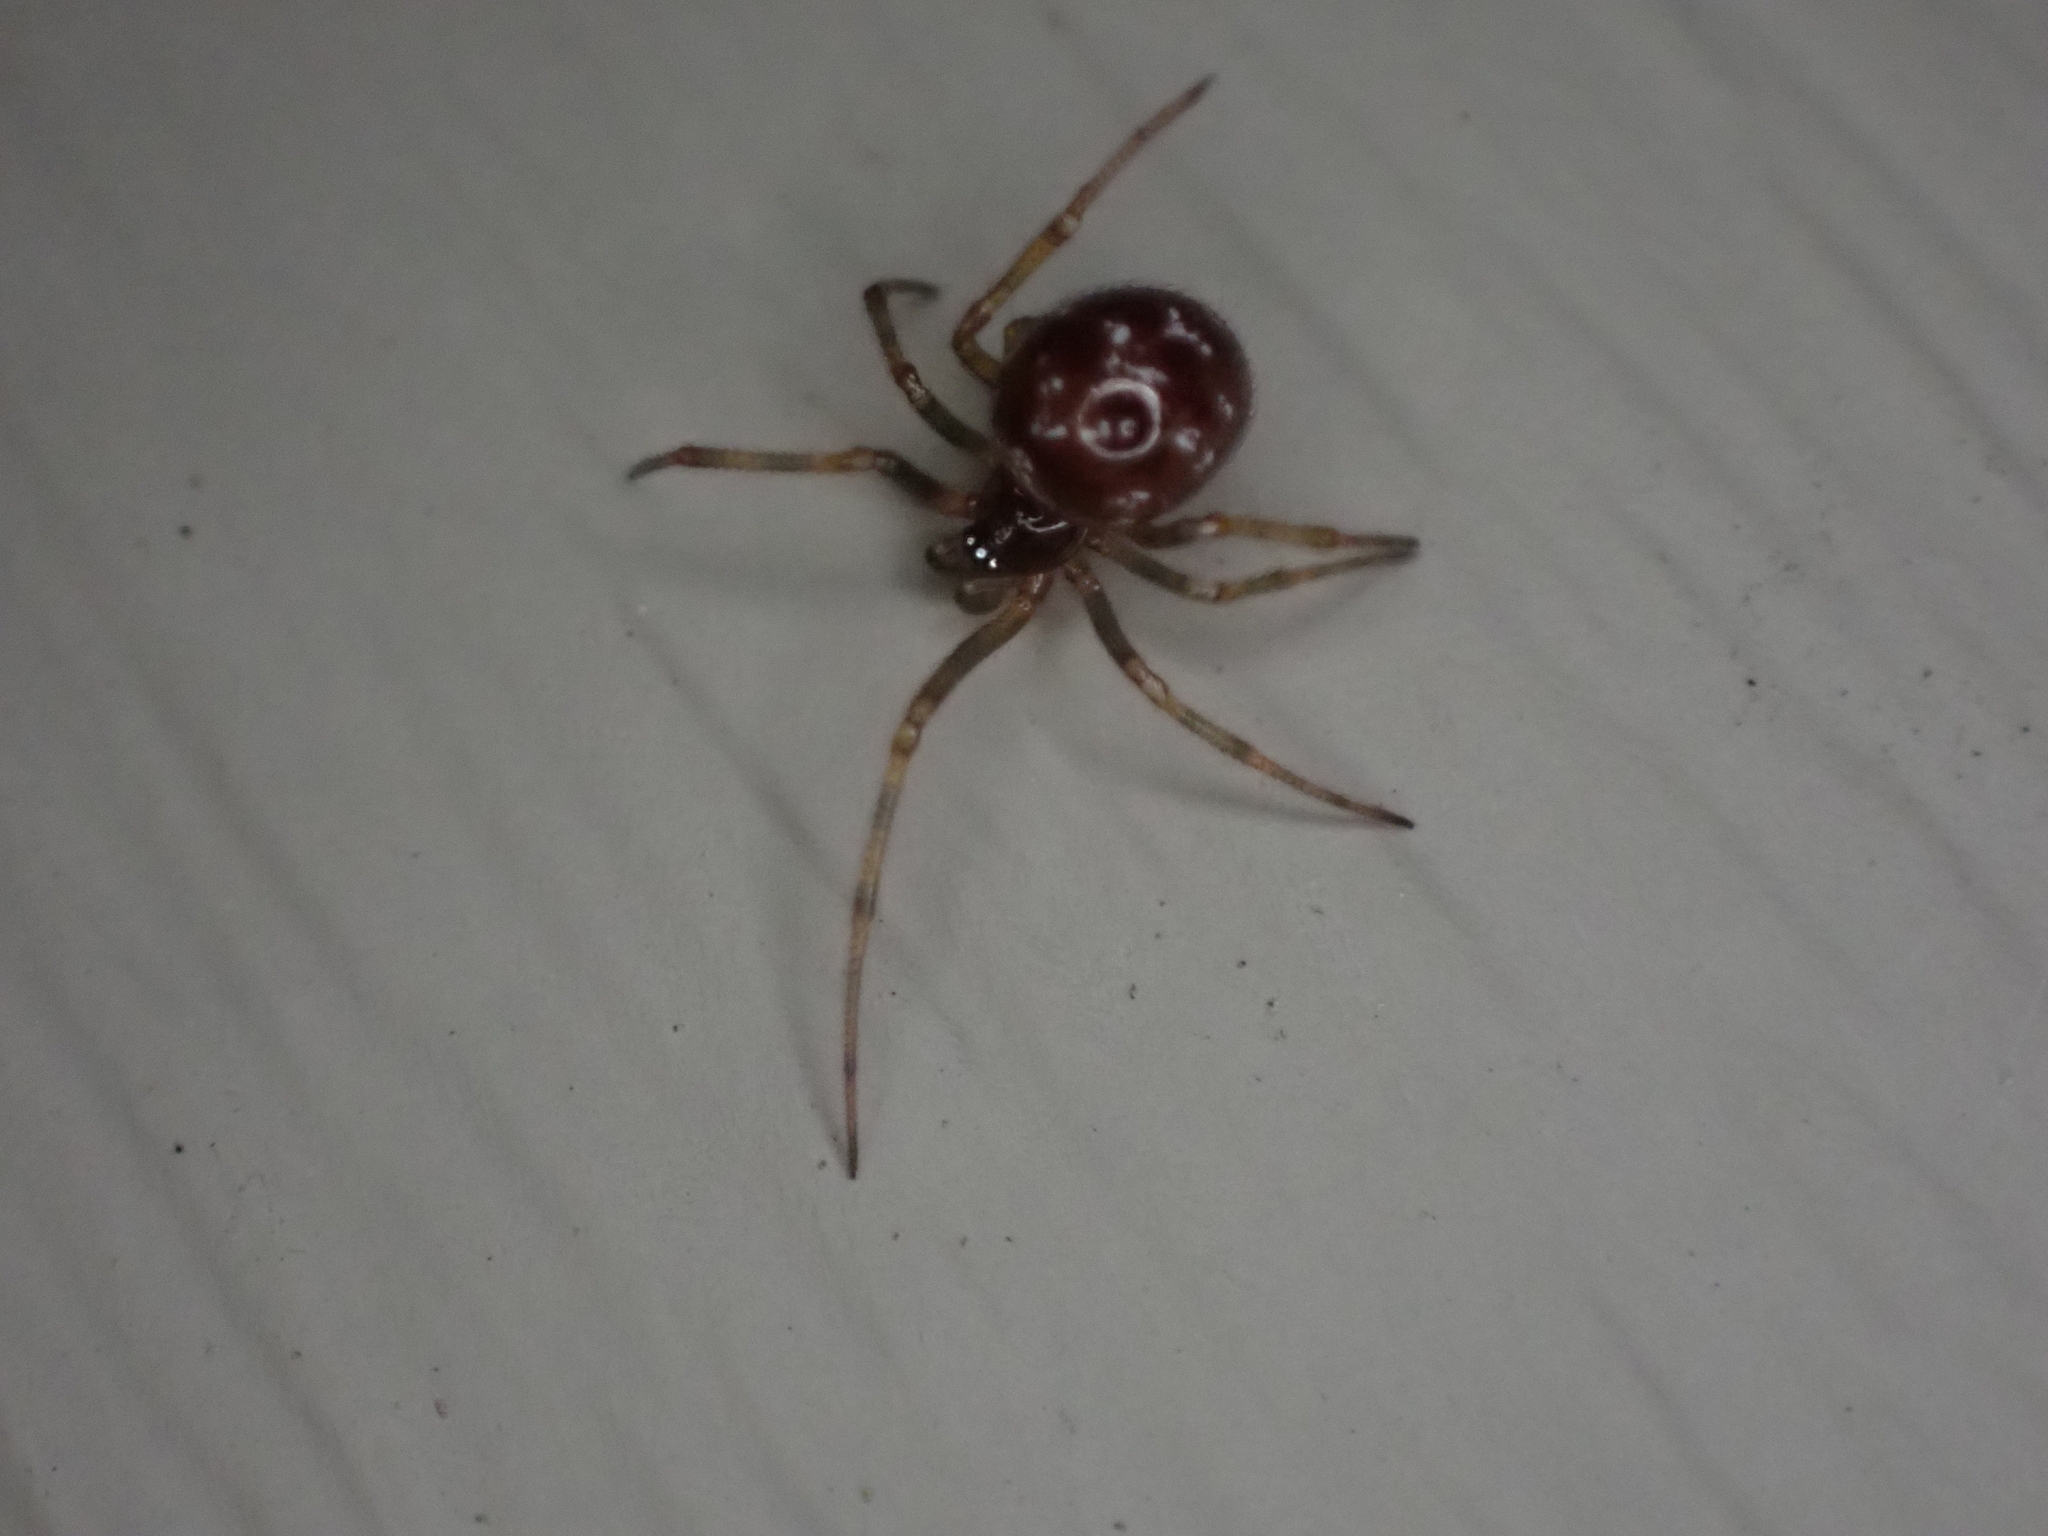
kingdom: Animalia
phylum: Arthropoda
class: Arachnida
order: Araneae
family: Theridiidae
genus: Steatoda
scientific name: Steatoda triangulosa
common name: Triangulate bud spider
